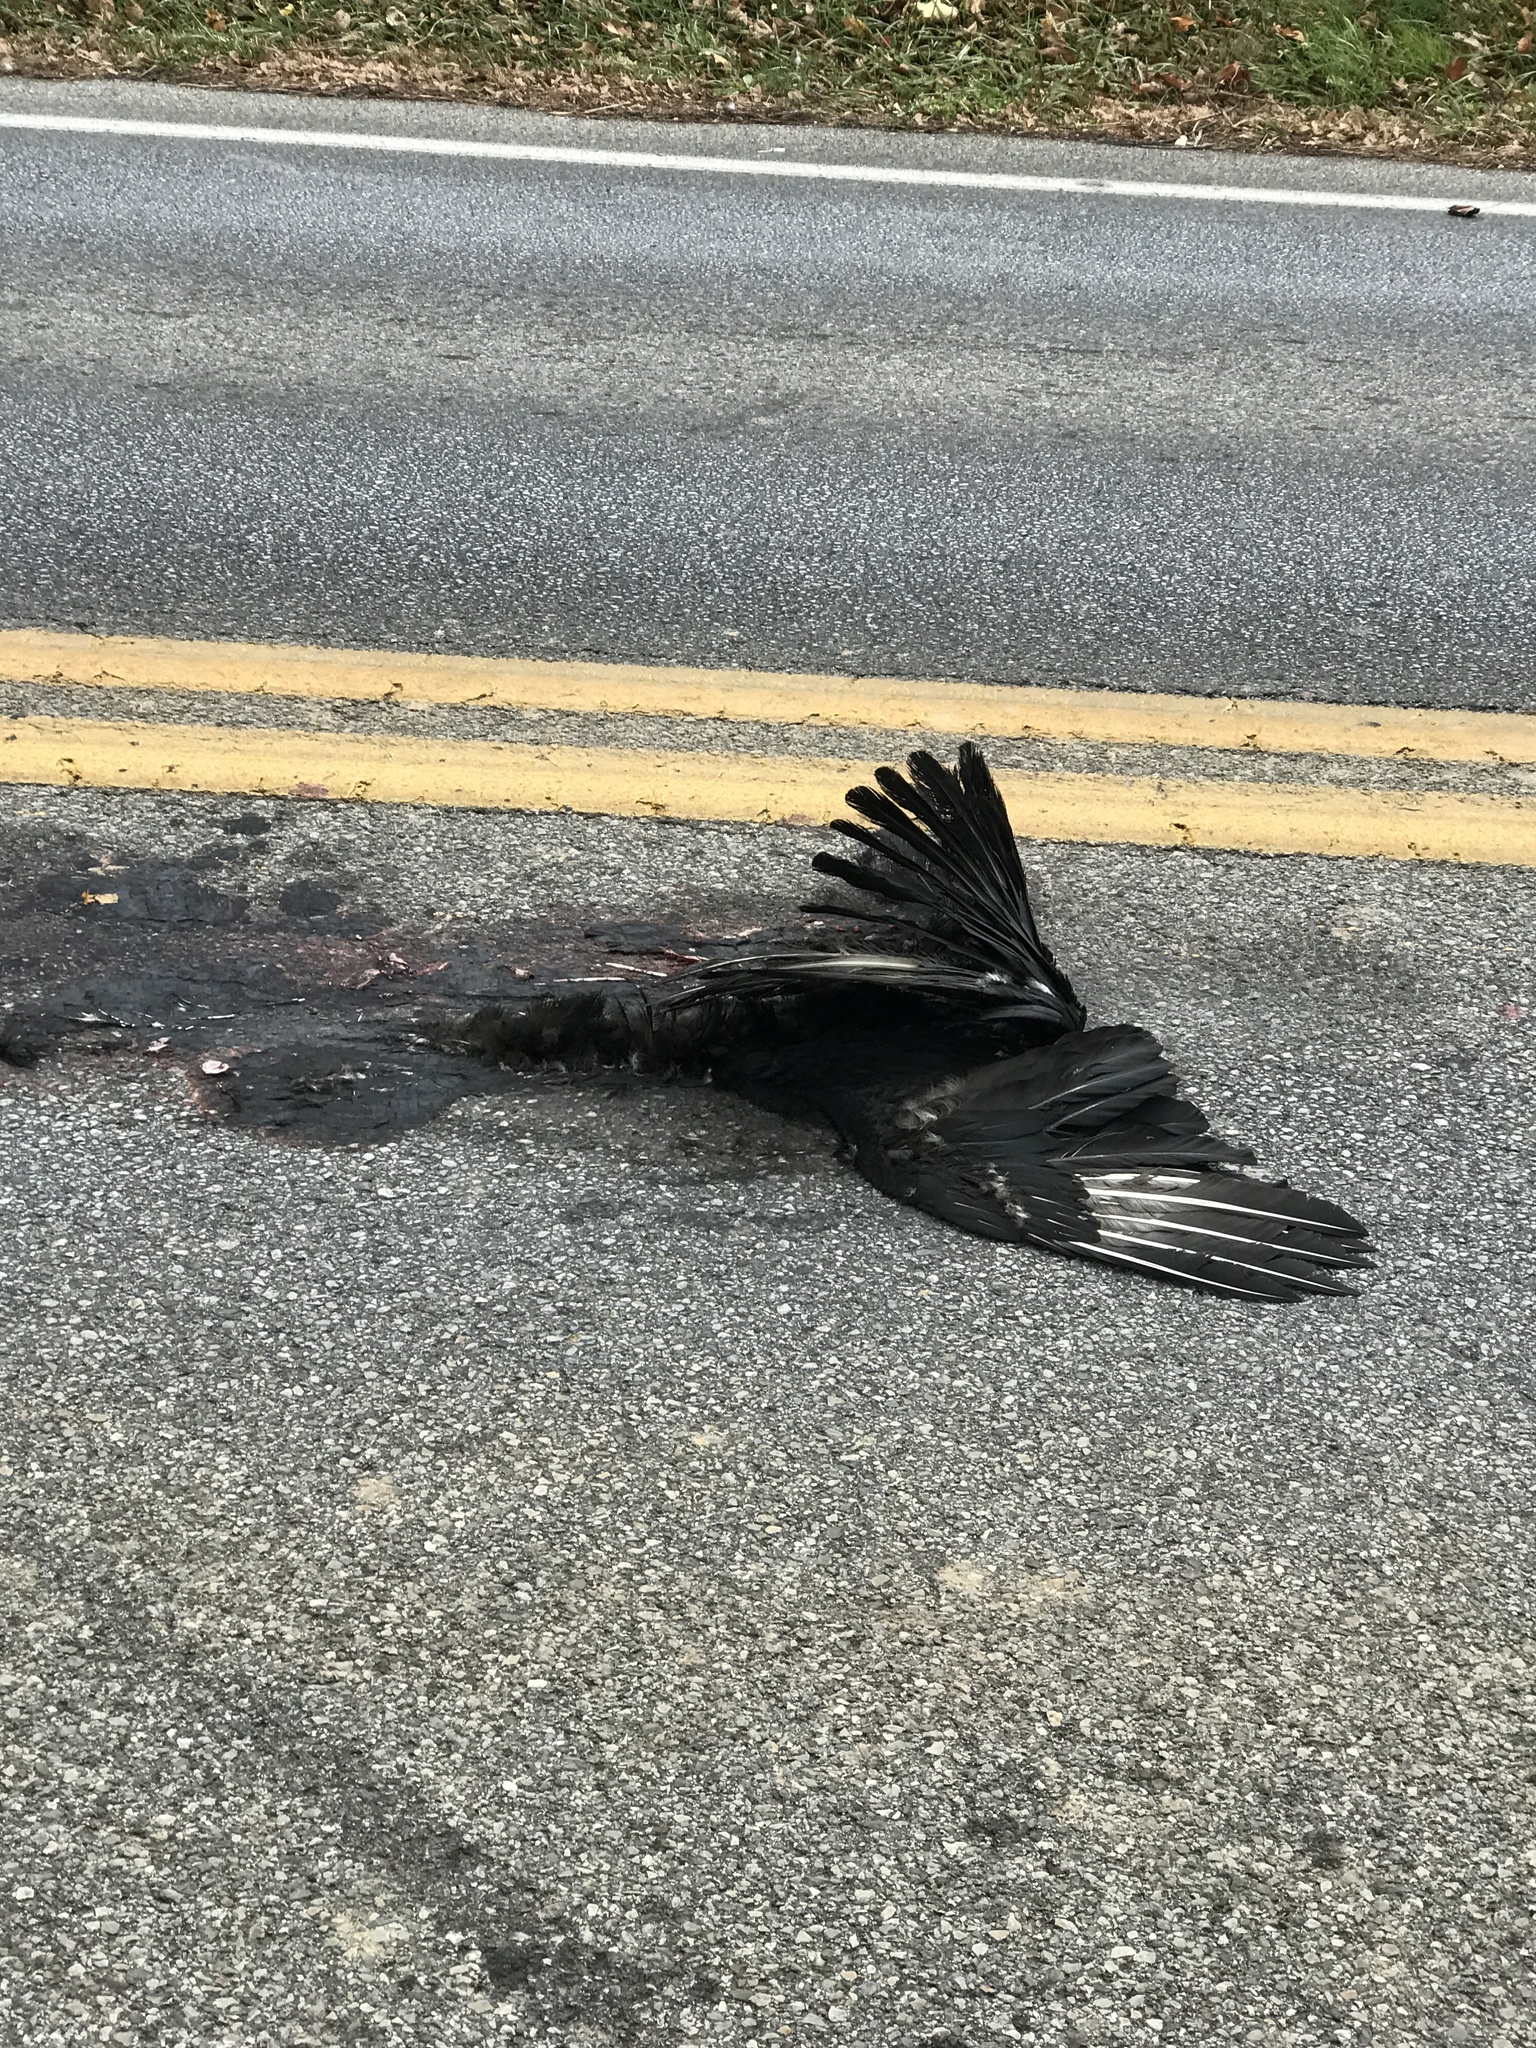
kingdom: Animalia
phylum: Chordata
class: Aves
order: Accipitriformes
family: Cathartidae
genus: Coragyps
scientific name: Coragyps atratus
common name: Black vulture
